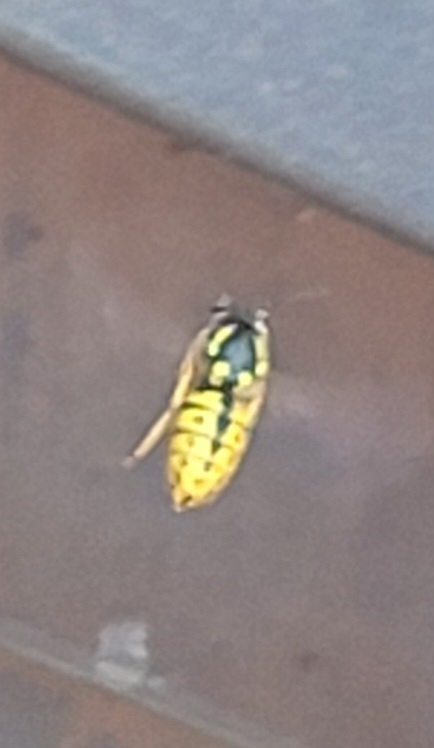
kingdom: Animalia
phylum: Arthropoda
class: Insecta
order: Hymenoptera
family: Vespidae
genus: Vespula
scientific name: Vespula germanica
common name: German wasp
